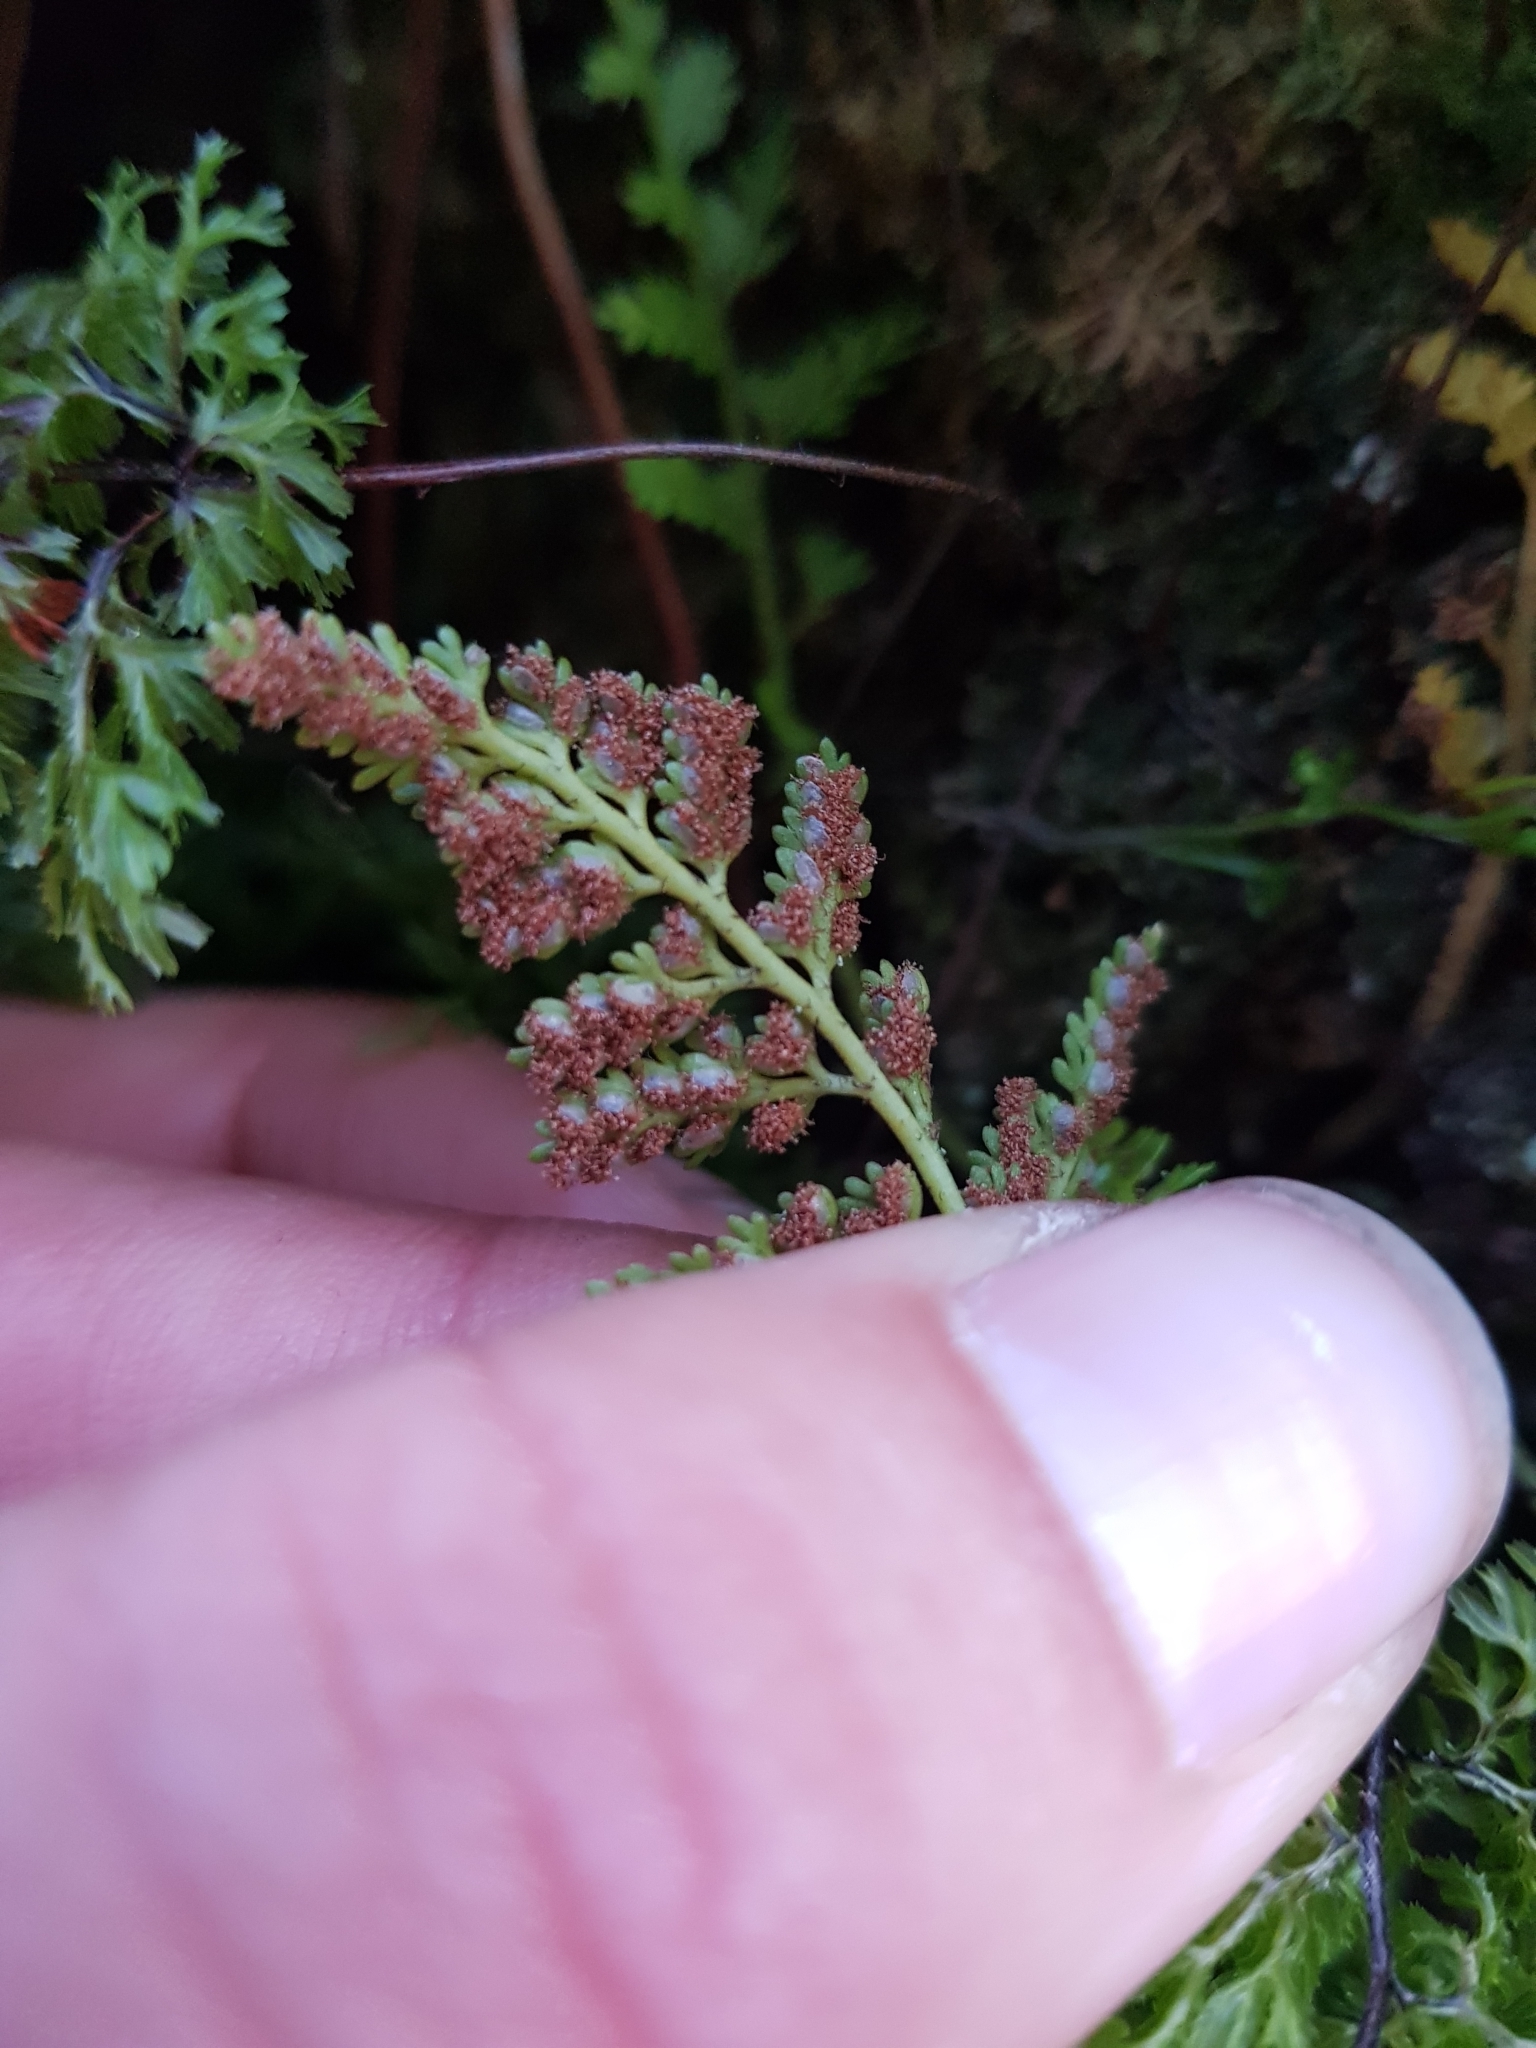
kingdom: Plantae
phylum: Tracheophyta
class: Polypodiopsida
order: Polypodiales
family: Aspleniaceae
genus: Asplenium
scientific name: Asplenium hookerianum
